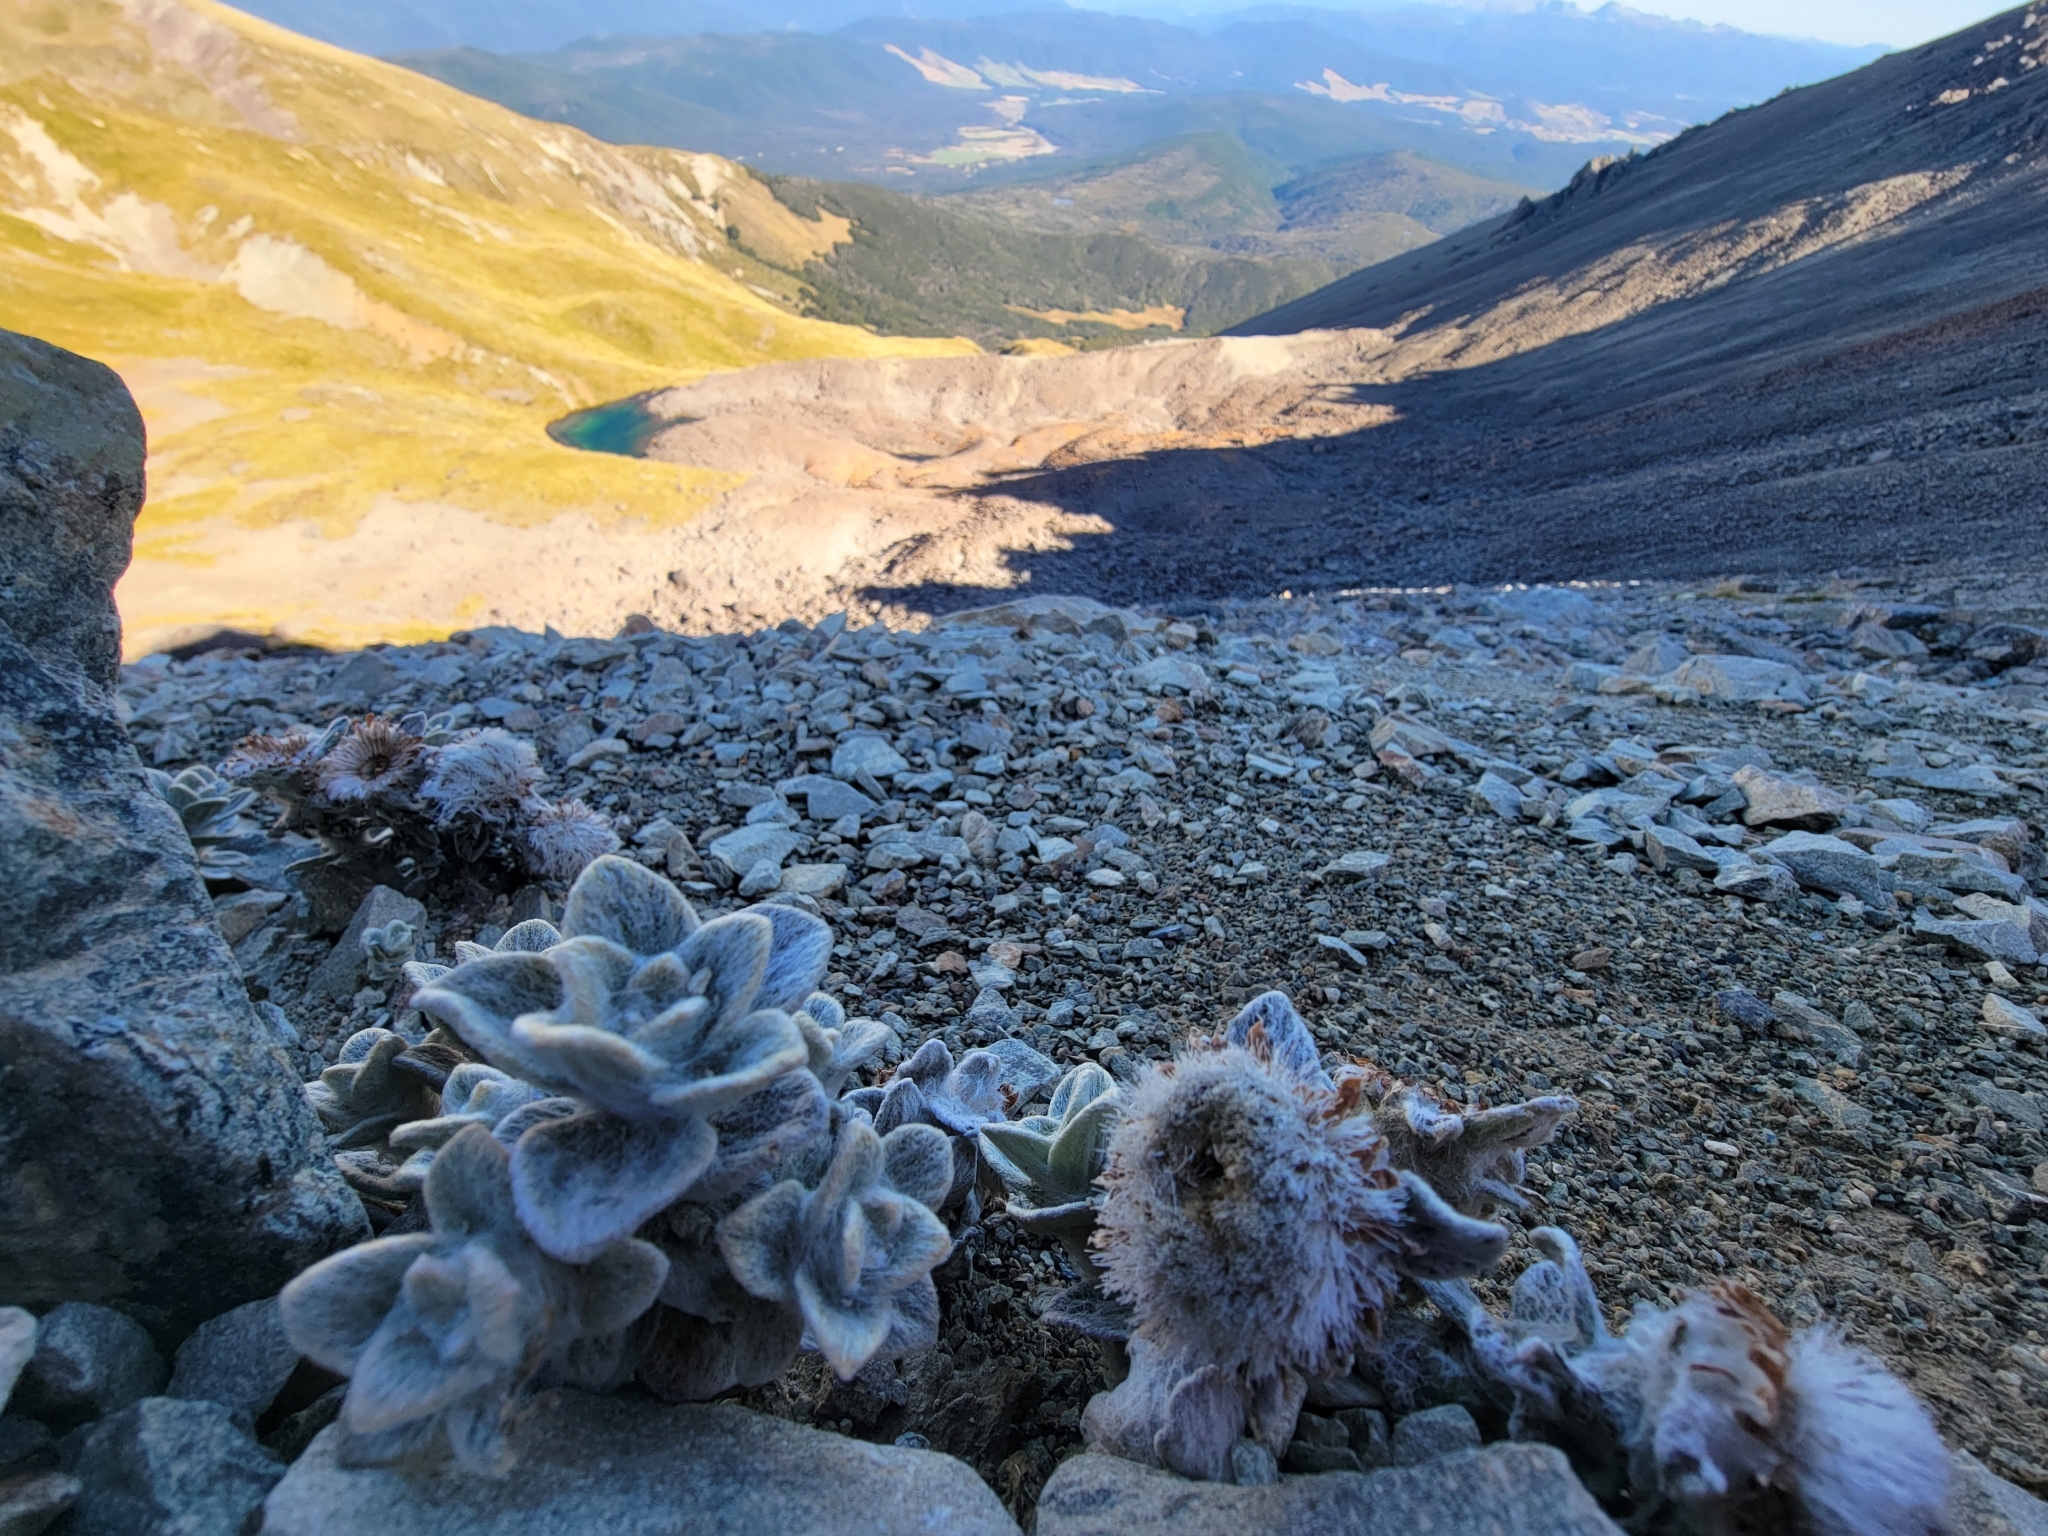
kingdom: Plantae
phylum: Tracheophyta
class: Magnoliopsida
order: Asterales
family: Asteraceae
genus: Haastia
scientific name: Haastia sinclairii
